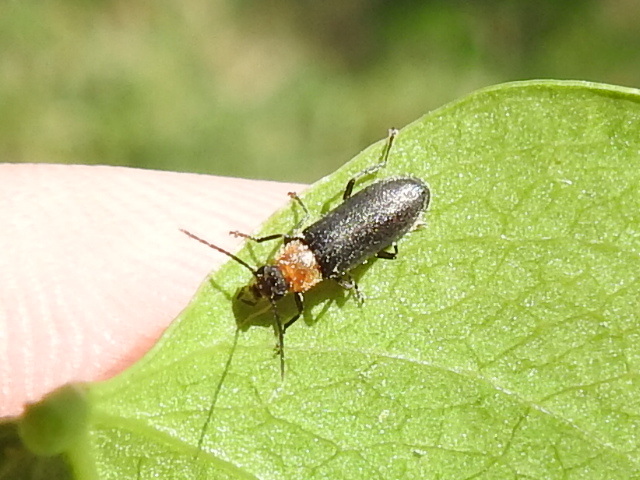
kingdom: Animalia
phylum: Arthropoda
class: Insecta
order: Coleoptera
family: Melandryidae
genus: Osphya
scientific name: Osphya varians
